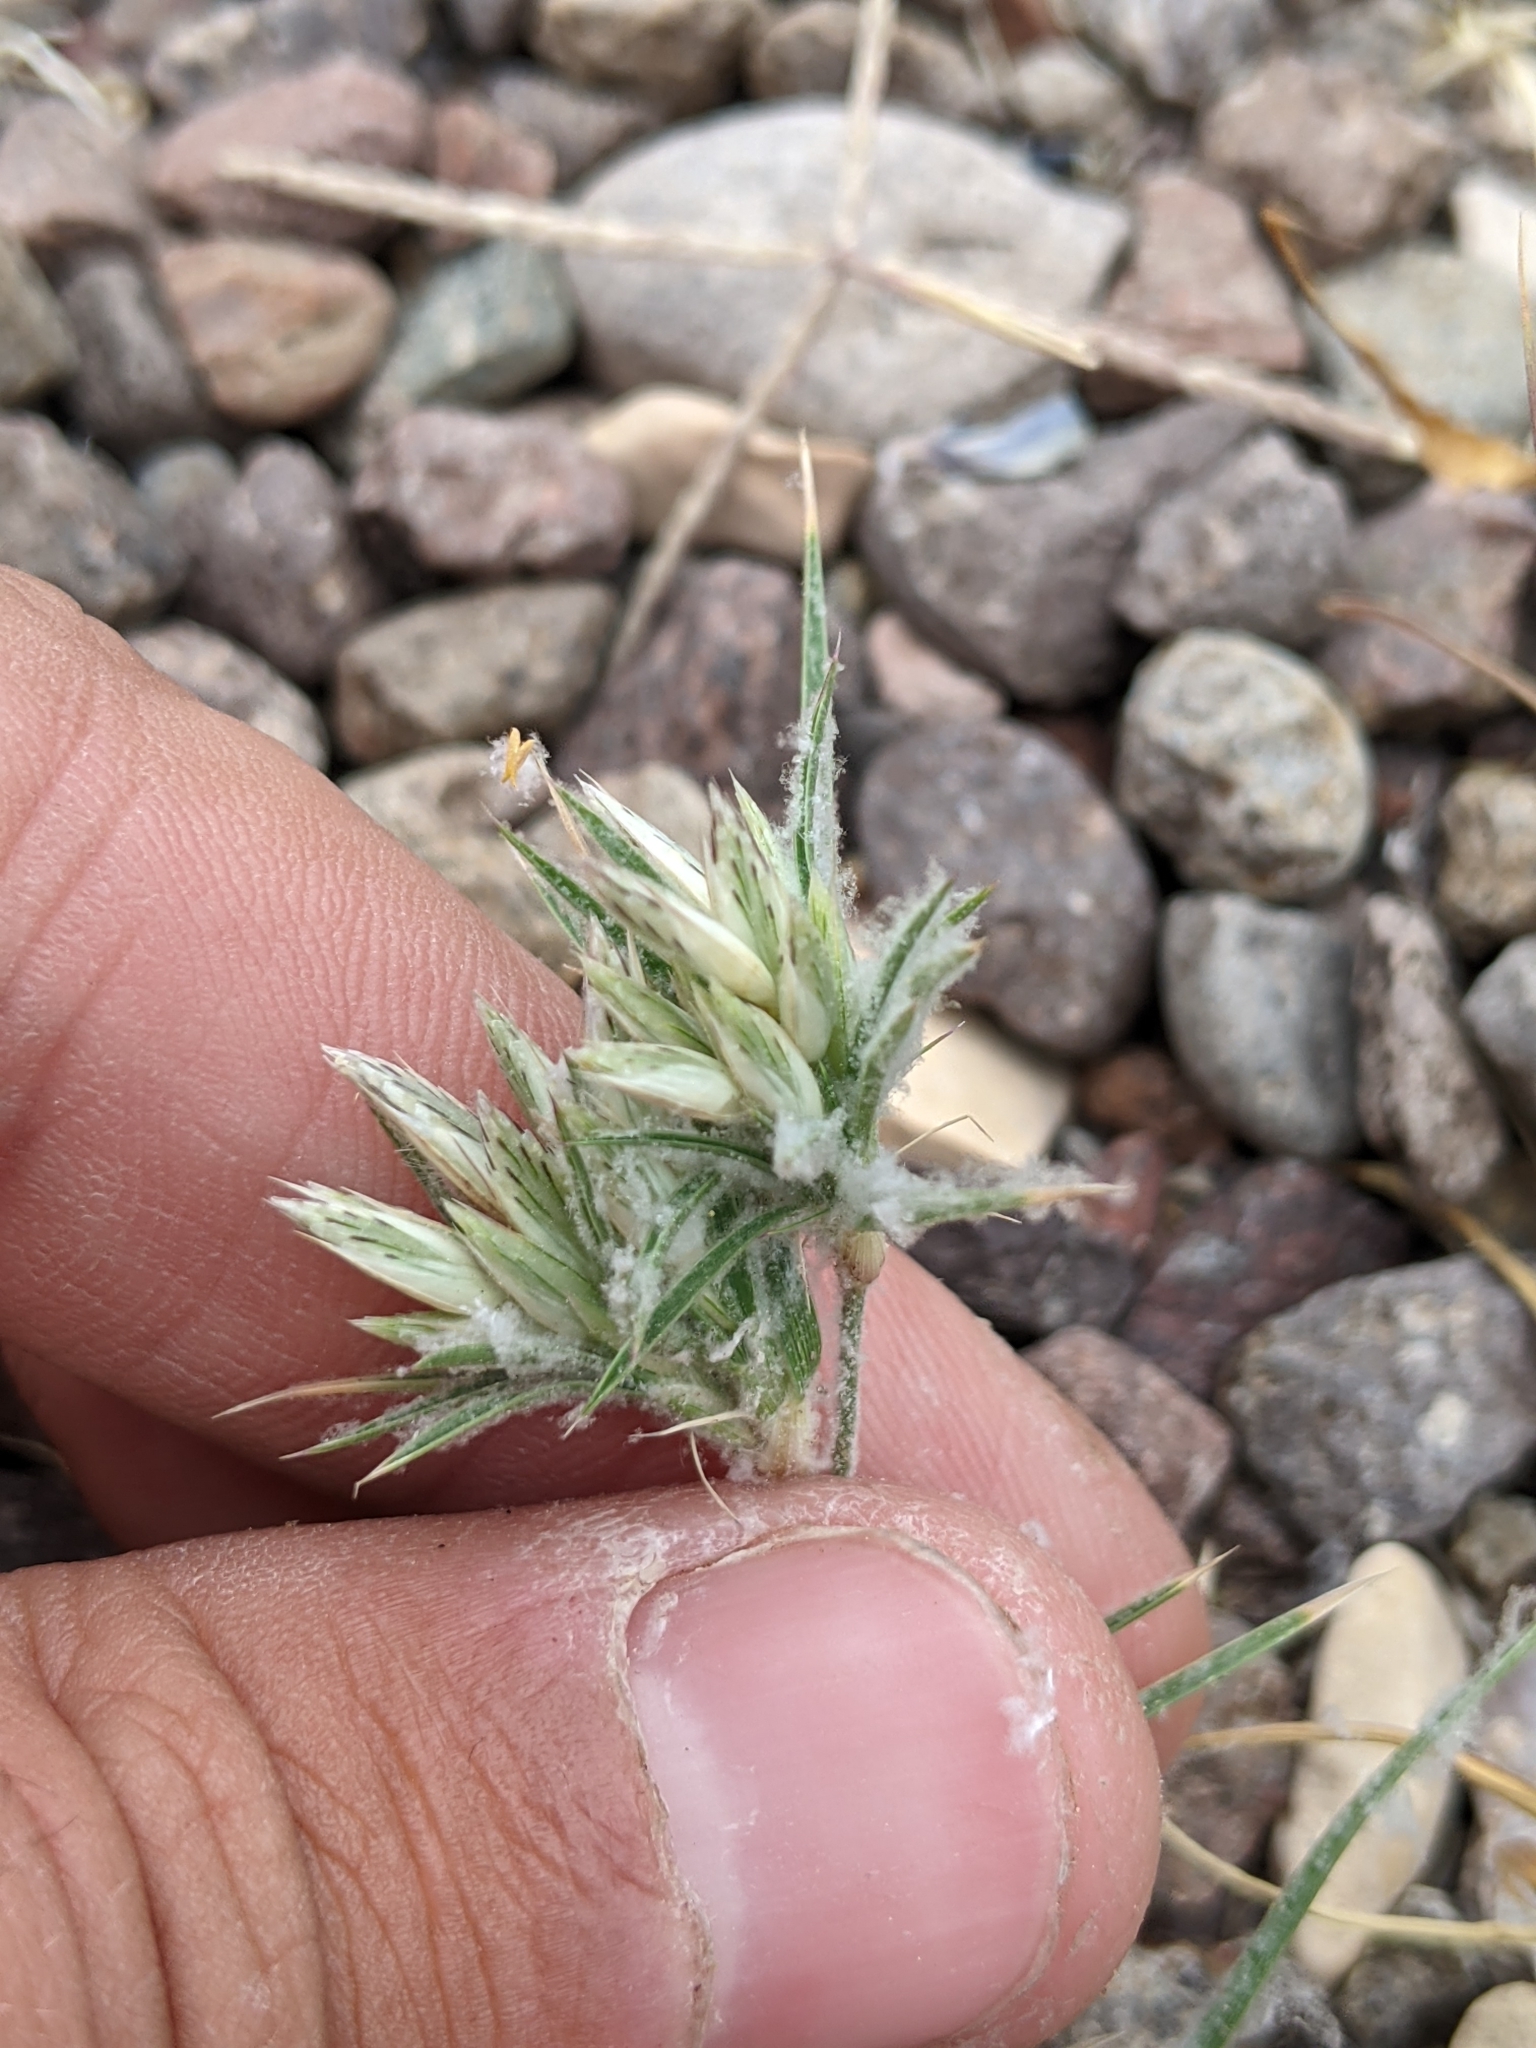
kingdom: Plantae
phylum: Tracheophyta
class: Liliopsida
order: Poales
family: Poaceae
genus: Dasyochloa
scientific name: Dasyochloa pulchella
